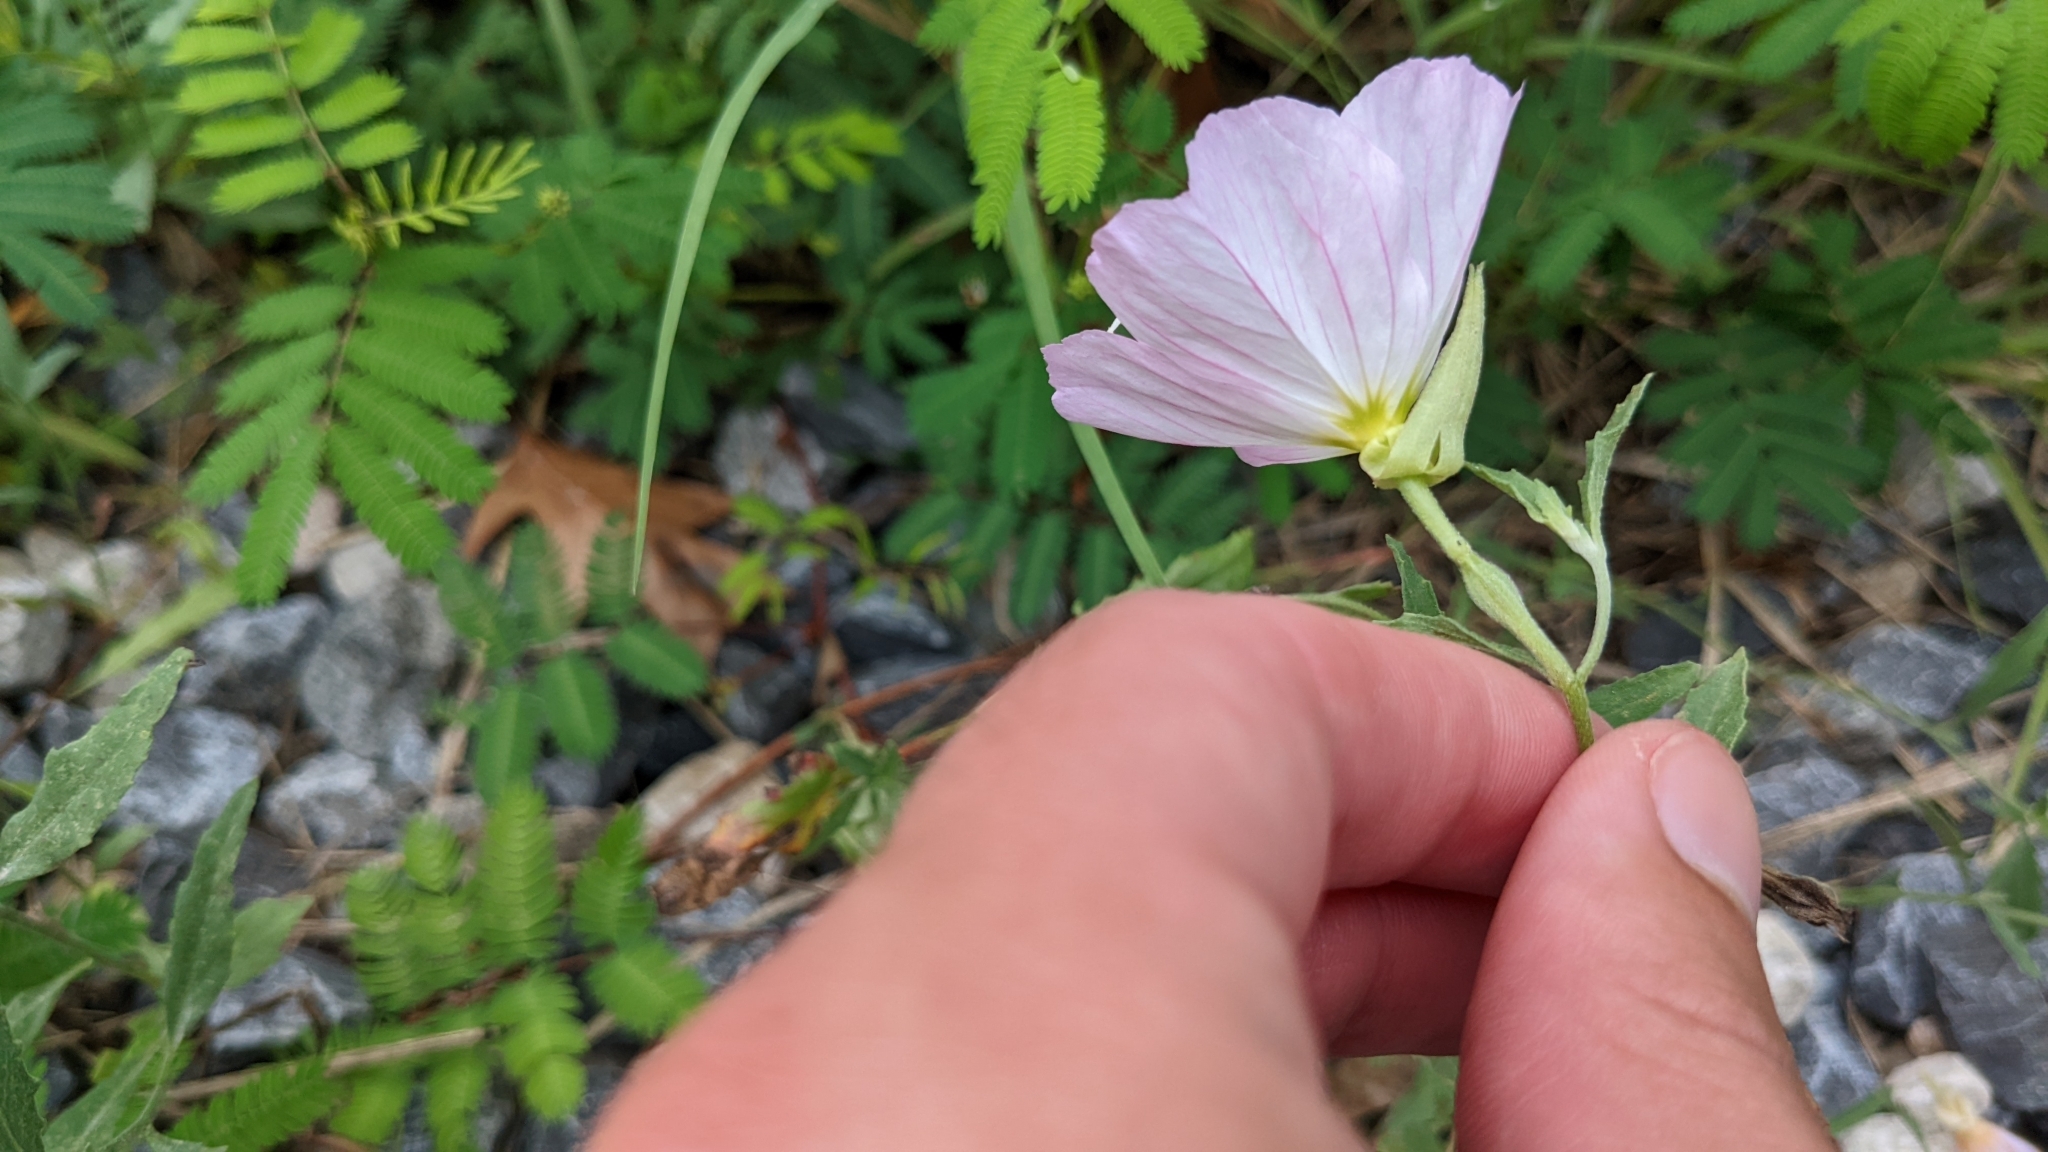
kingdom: Plantae
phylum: Tracheophyta
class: Magnoliopsida
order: Myrtales
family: Onagraceae
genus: Oenothera
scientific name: Oenothera speciosa
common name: White evening-primrose
